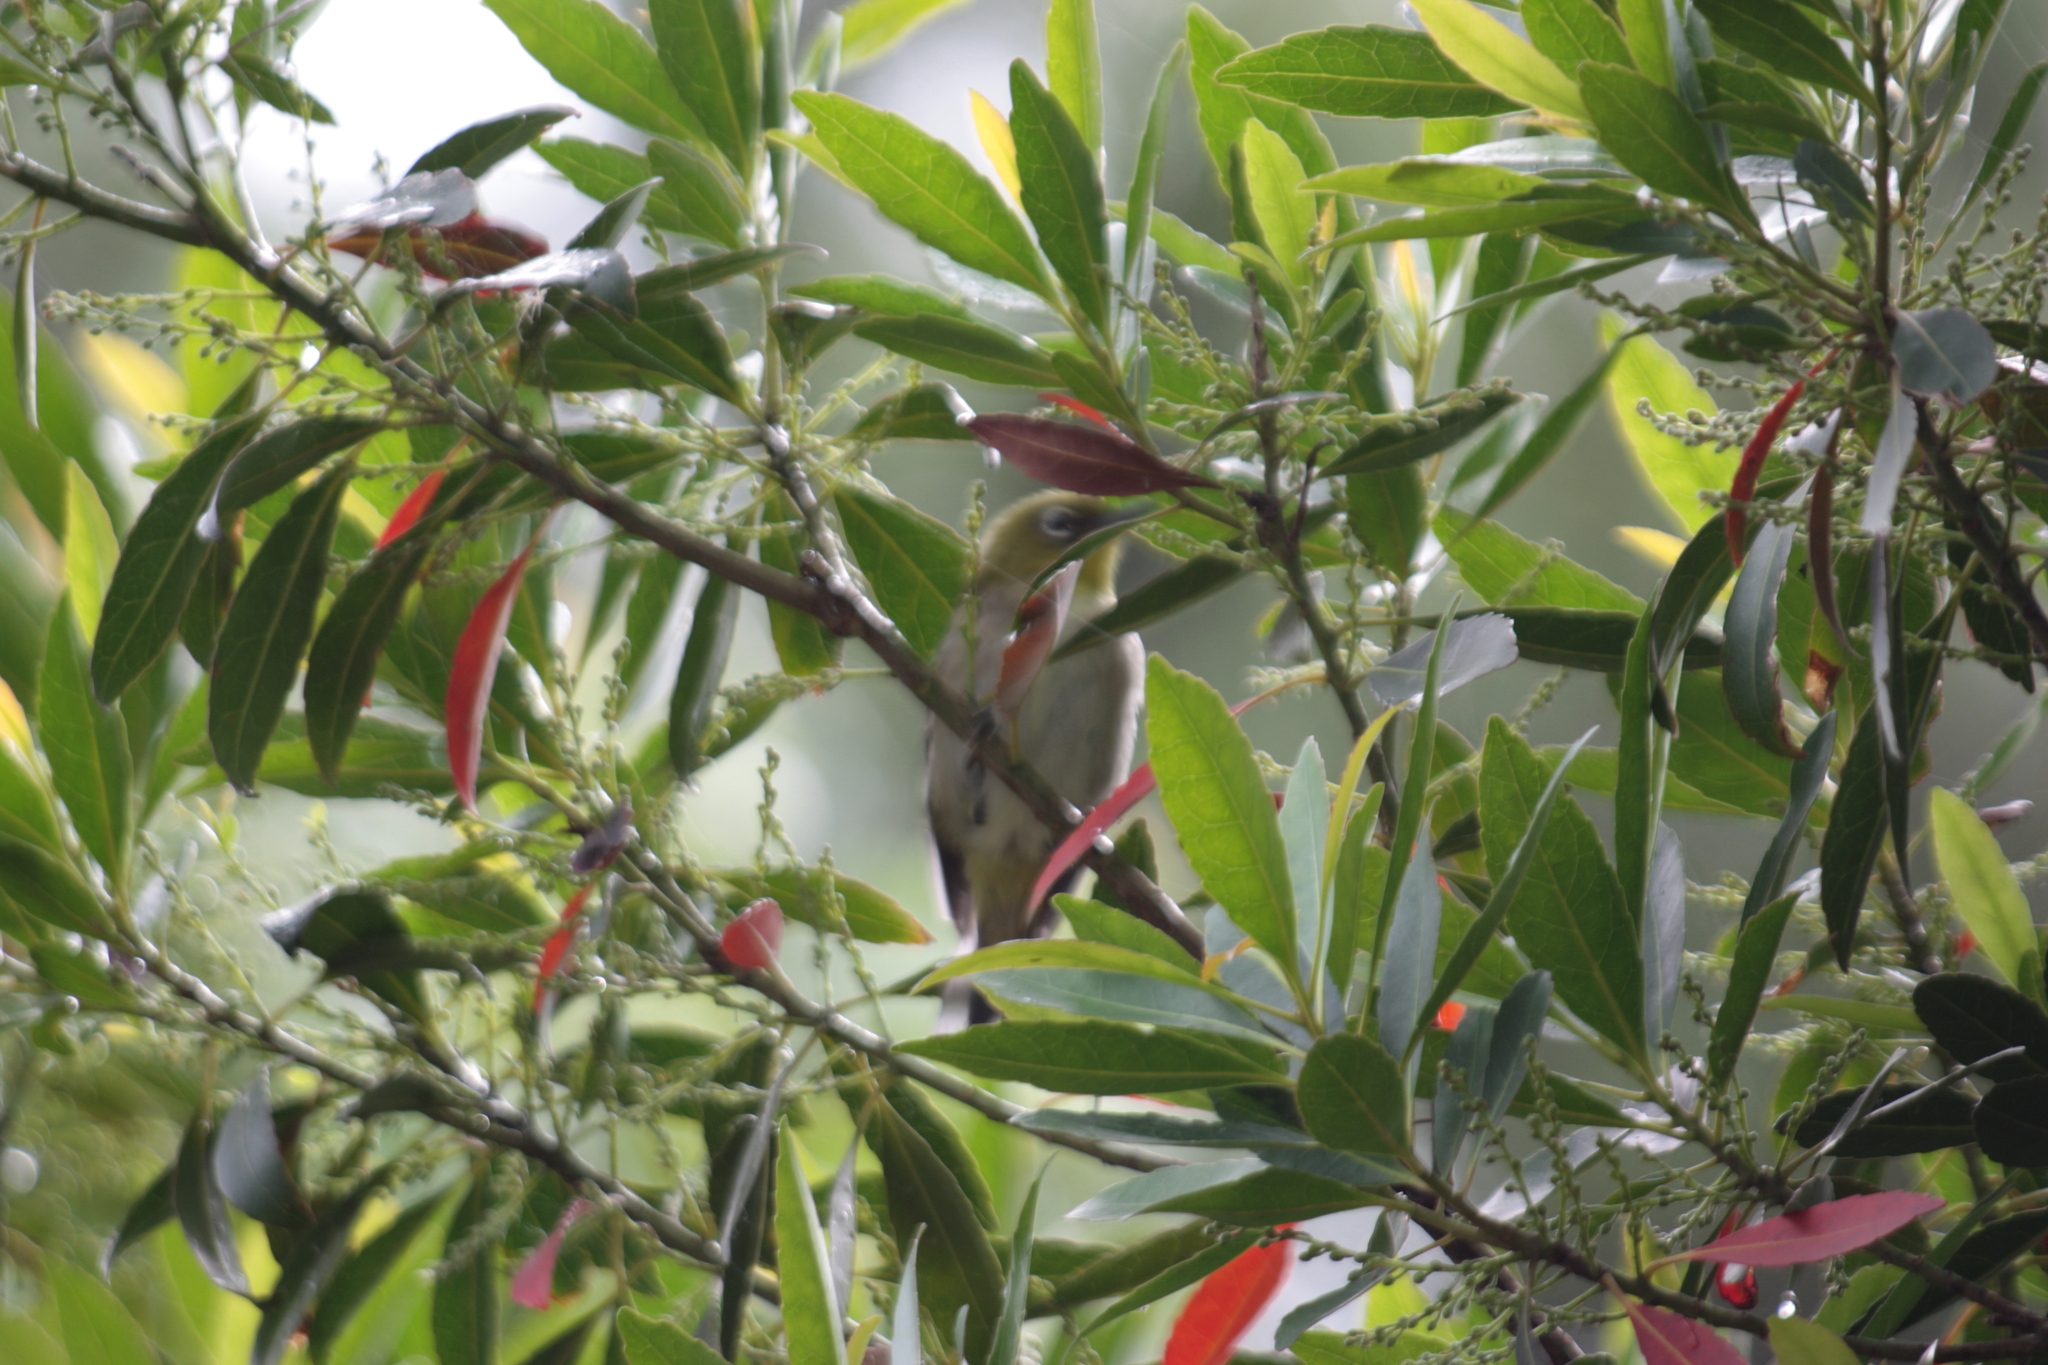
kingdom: Animalia
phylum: Chordata
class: Aves
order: Passeriformes
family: Zosteropidae
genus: Zosterops
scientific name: Zosterops japonicus
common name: Japanese white-eye
